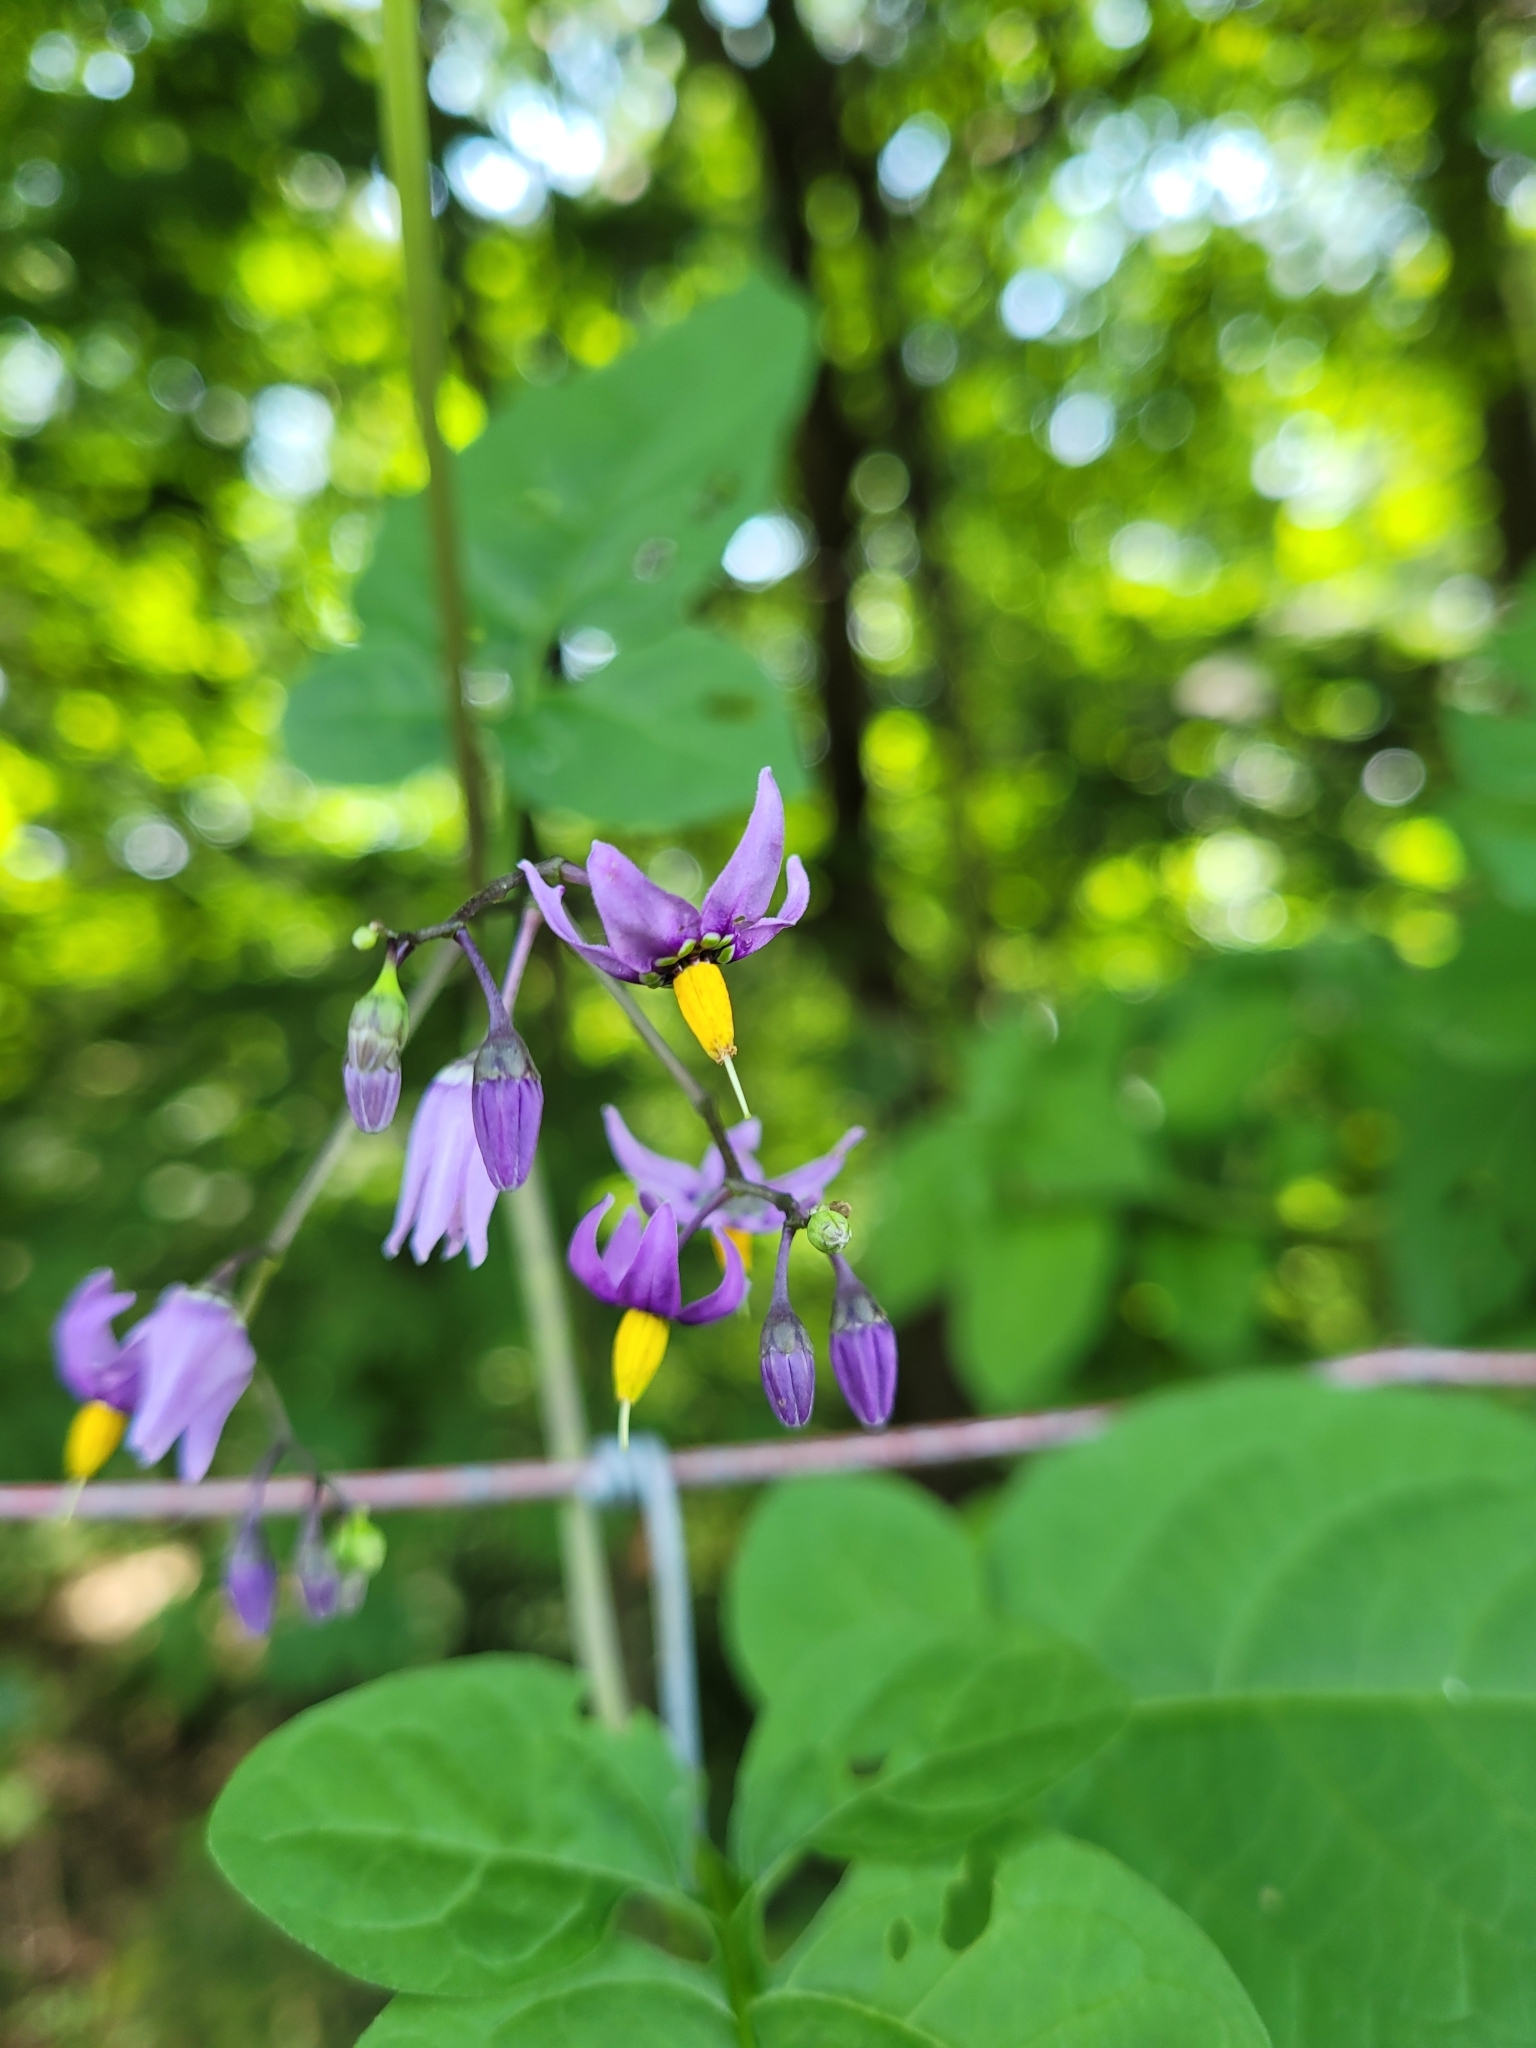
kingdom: Plantae
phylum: Tracheophyta
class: Magnoliopsida
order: Solanales
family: Solanaceae
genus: Solanum
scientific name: Solanum dulcamara
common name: Climbing nightshade
